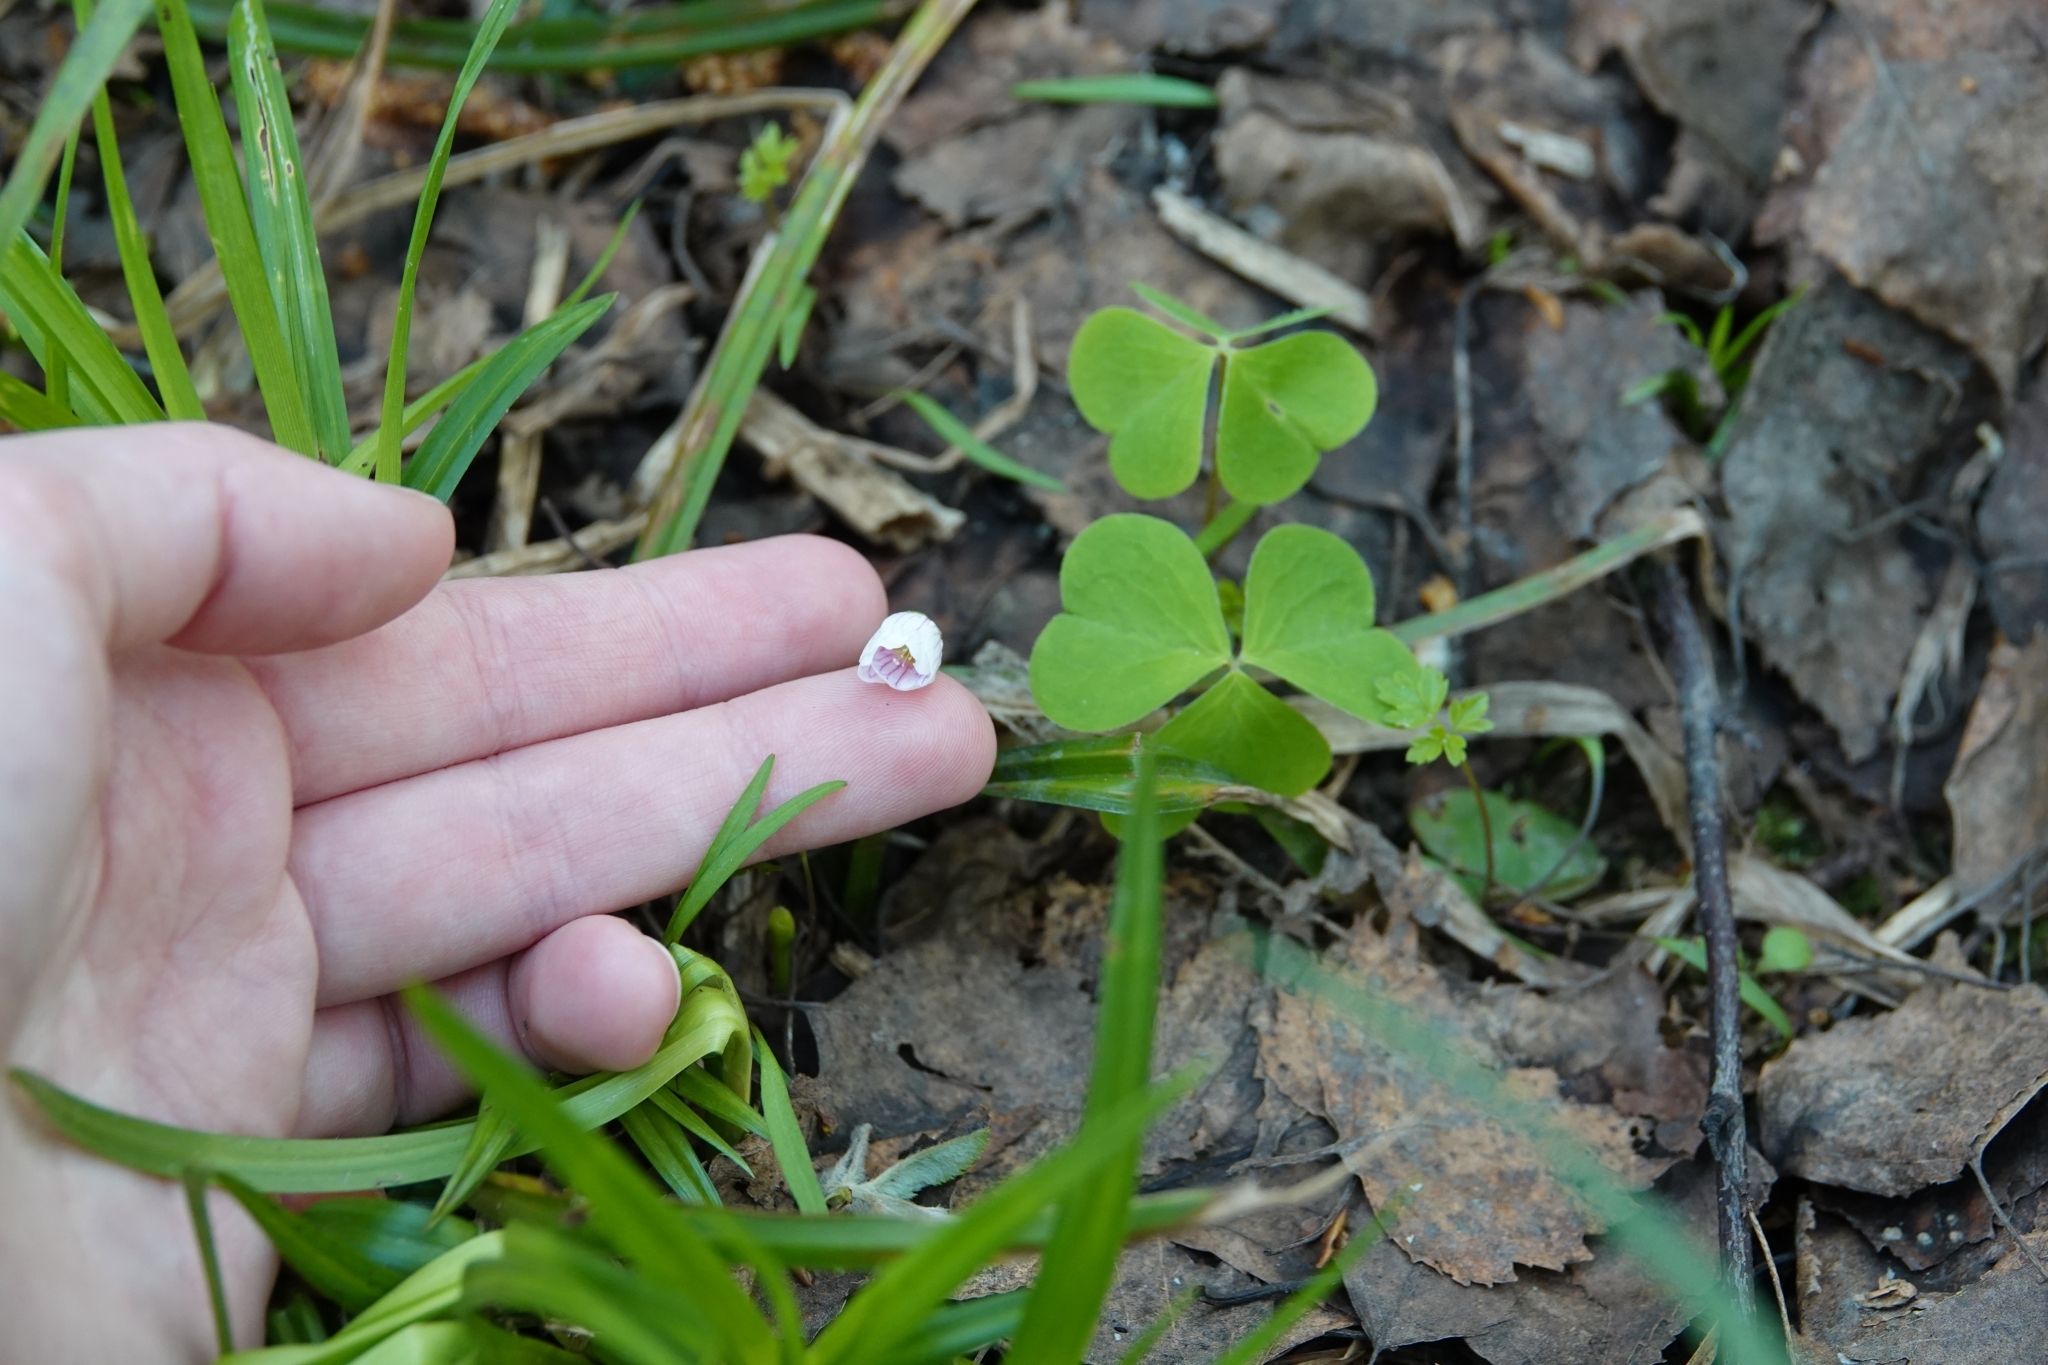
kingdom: Plantae
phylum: Tracheophyta
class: Magnoliopsida
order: Oxalidales
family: Oxalidaceae
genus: Oxalis
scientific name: Oxalis acetosella
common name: Wood-sorrel
